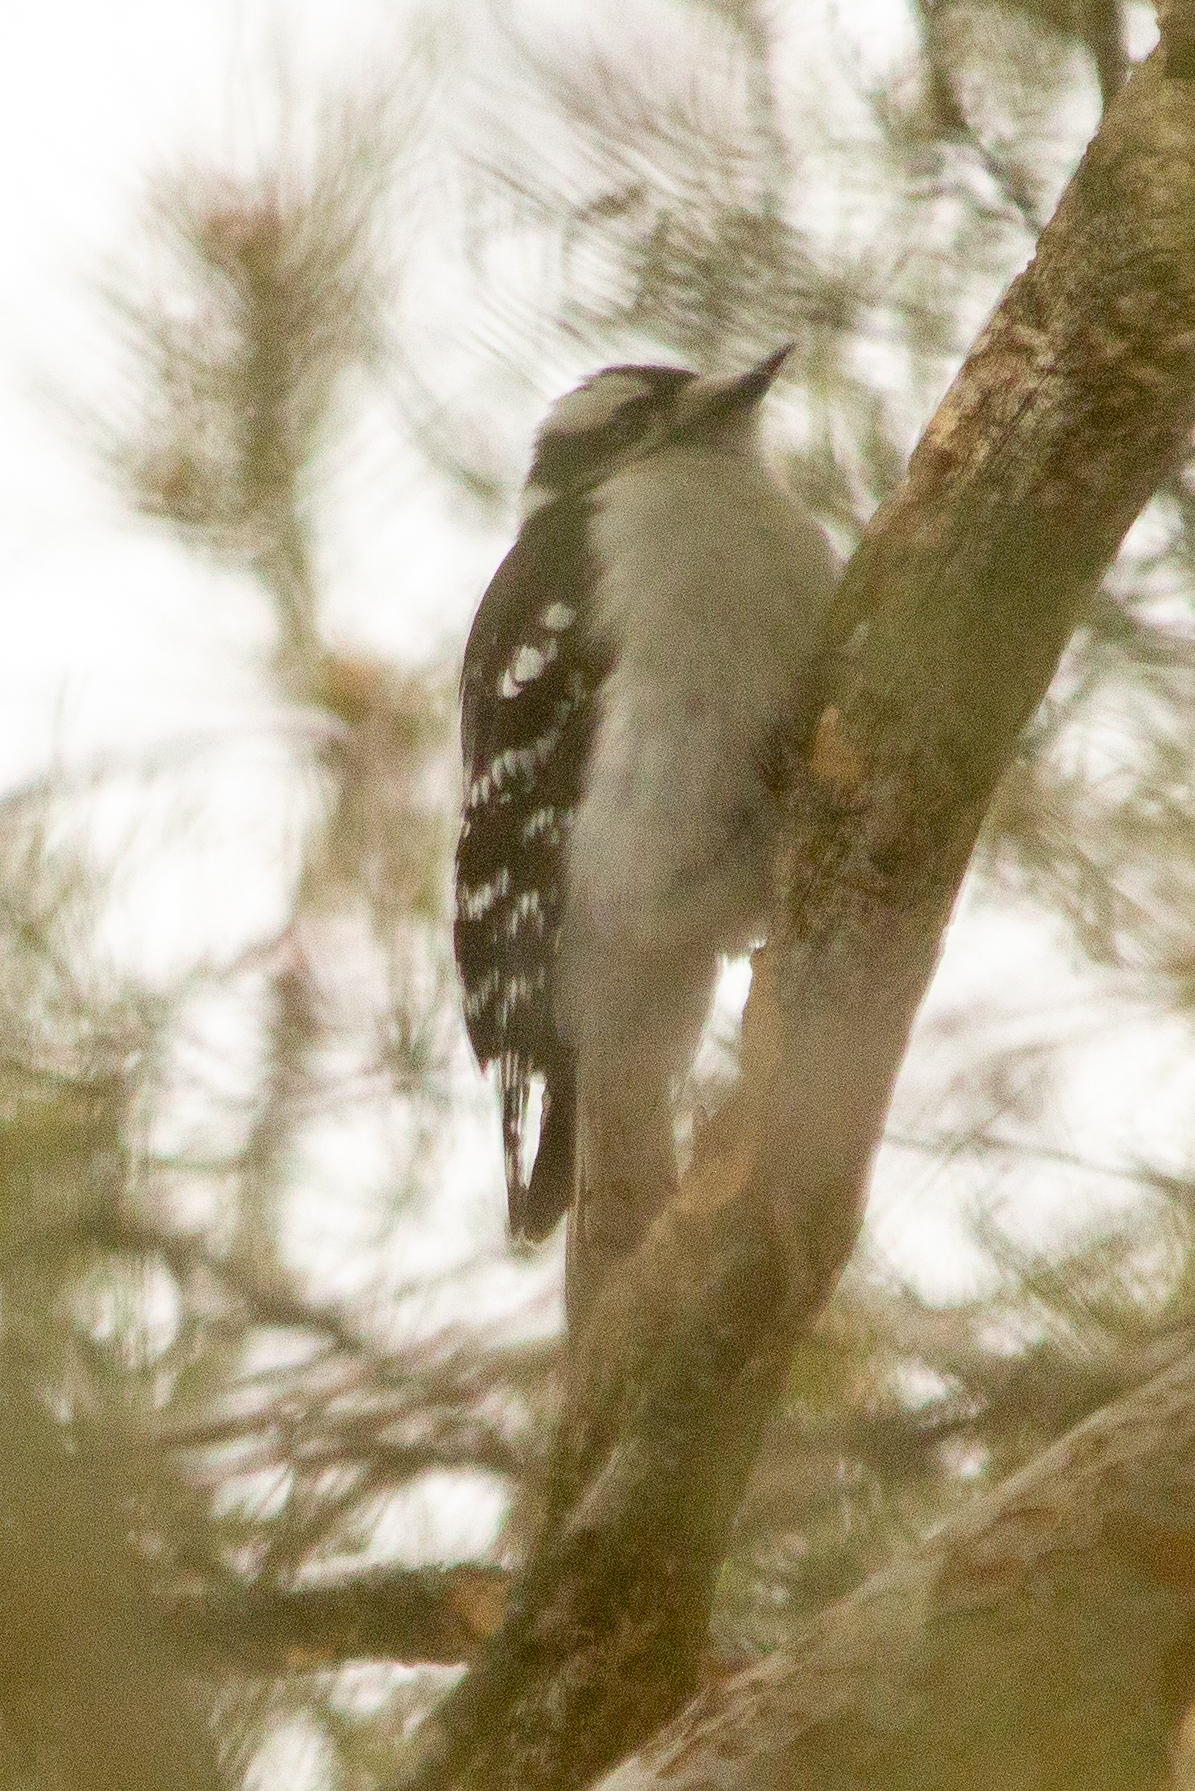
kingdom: Animalia
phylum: Chordata
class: Aves
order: Piciformes
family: Picidae
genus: Dryobates
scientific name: Dryobates pubescens
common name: Downy woodpecker
